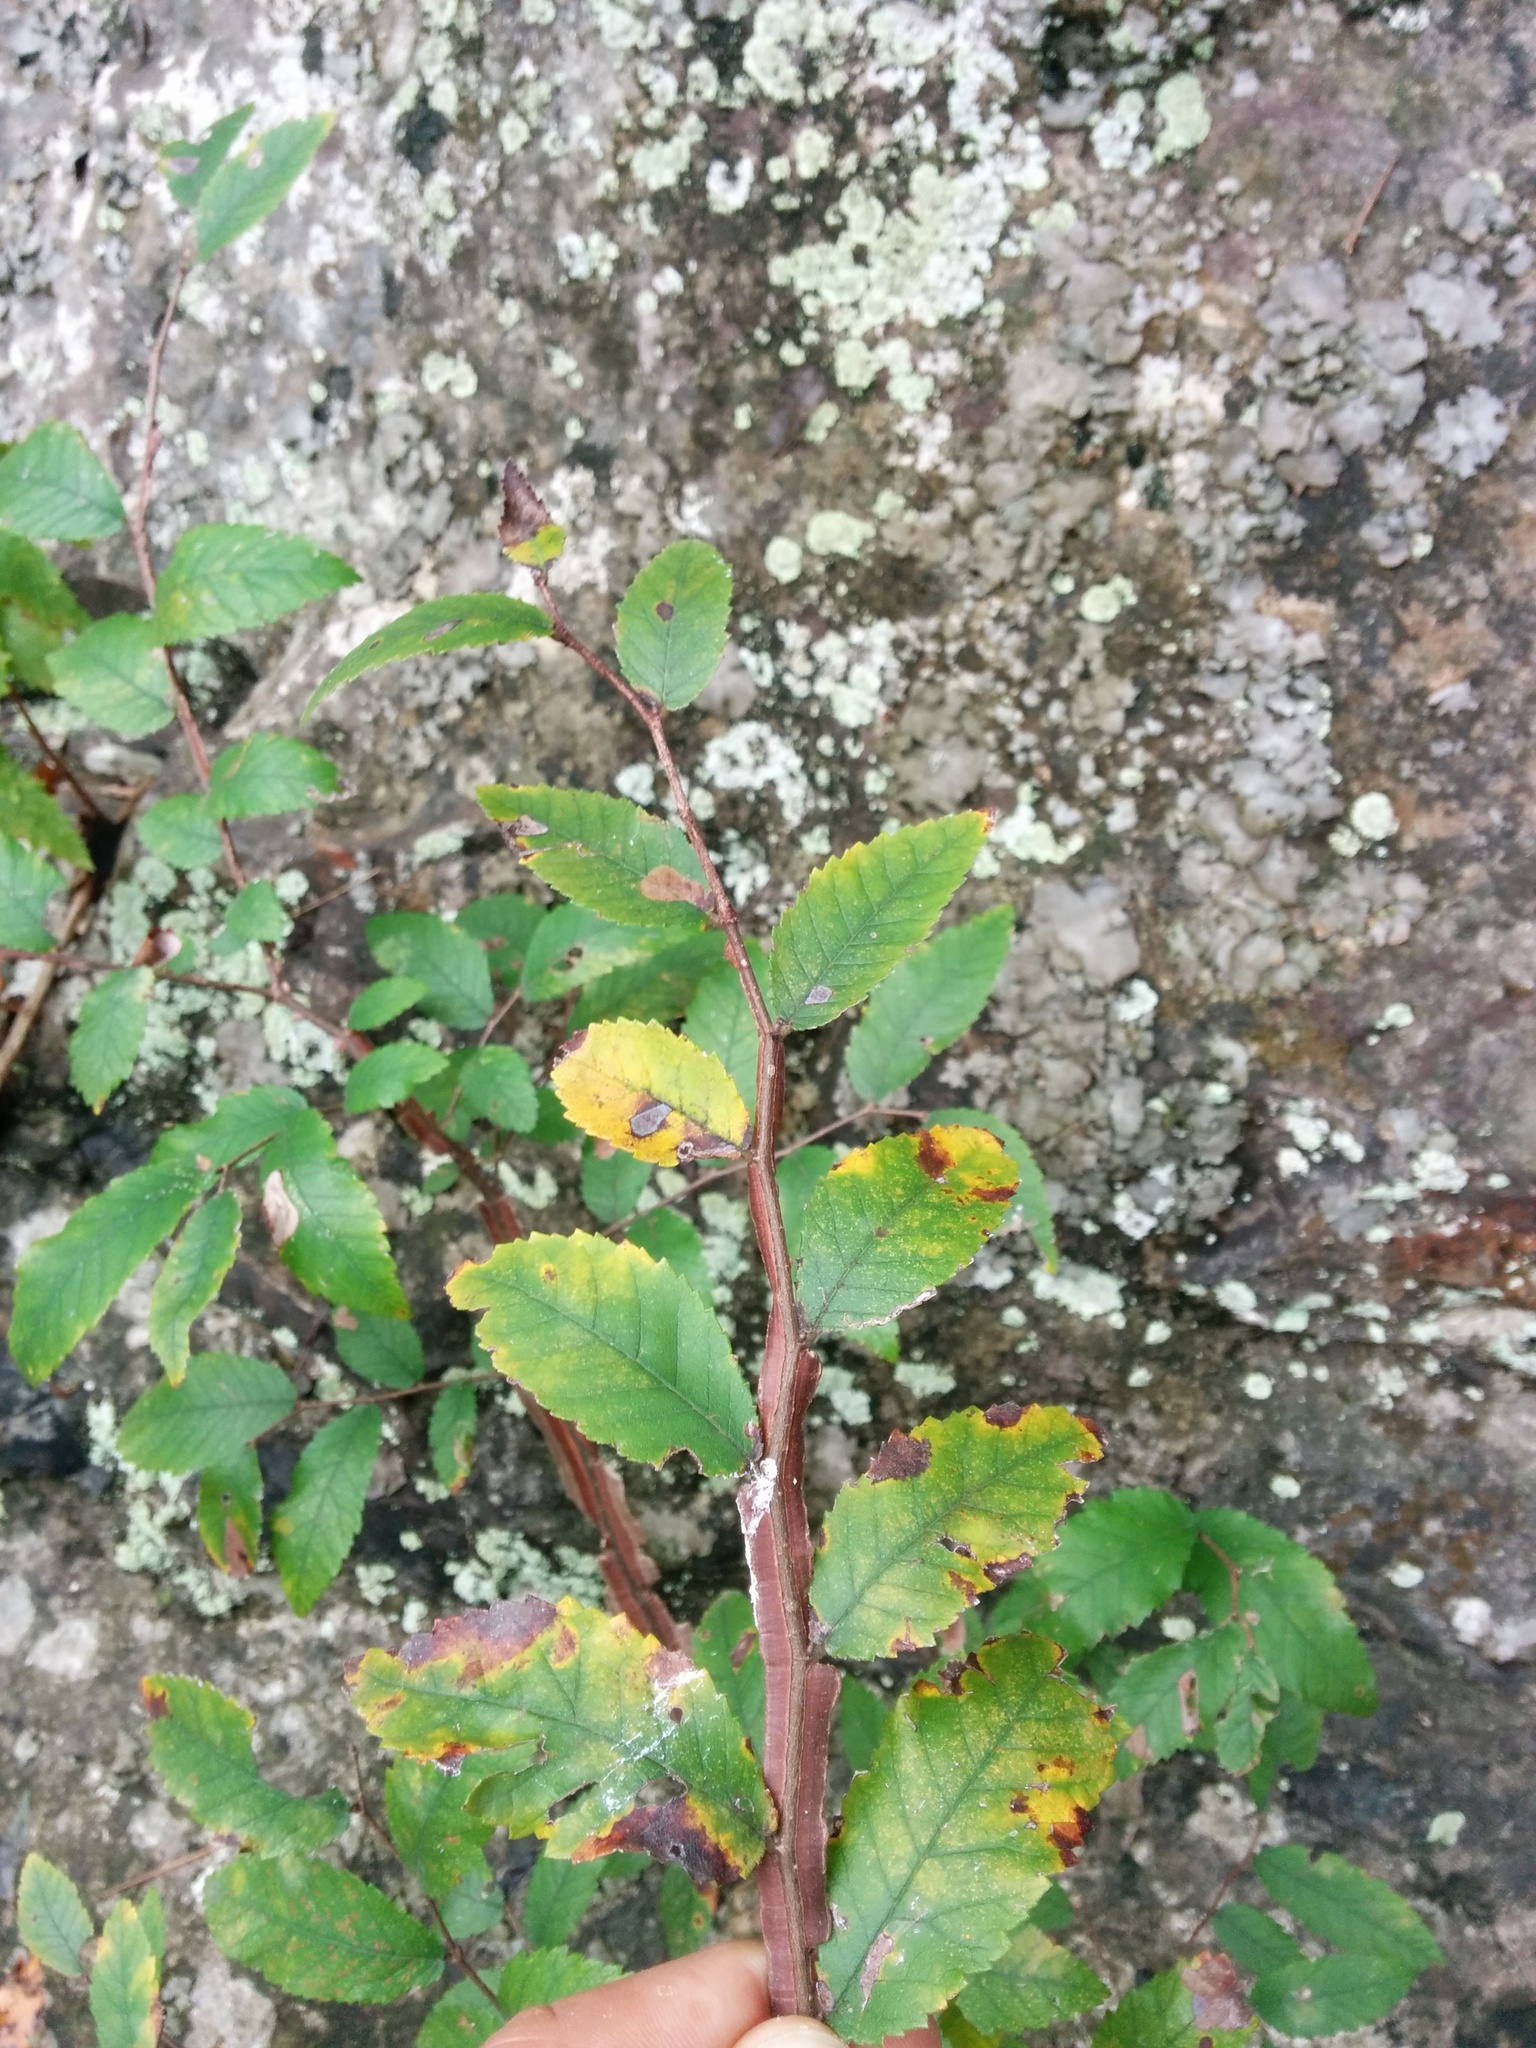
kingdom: Plantae
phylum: Tracheophyta
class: Magnoliopsida
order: Rosales
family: Ulmaceae
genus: Ulmus
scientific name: Ulmus crassifolia
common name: Basket elm
